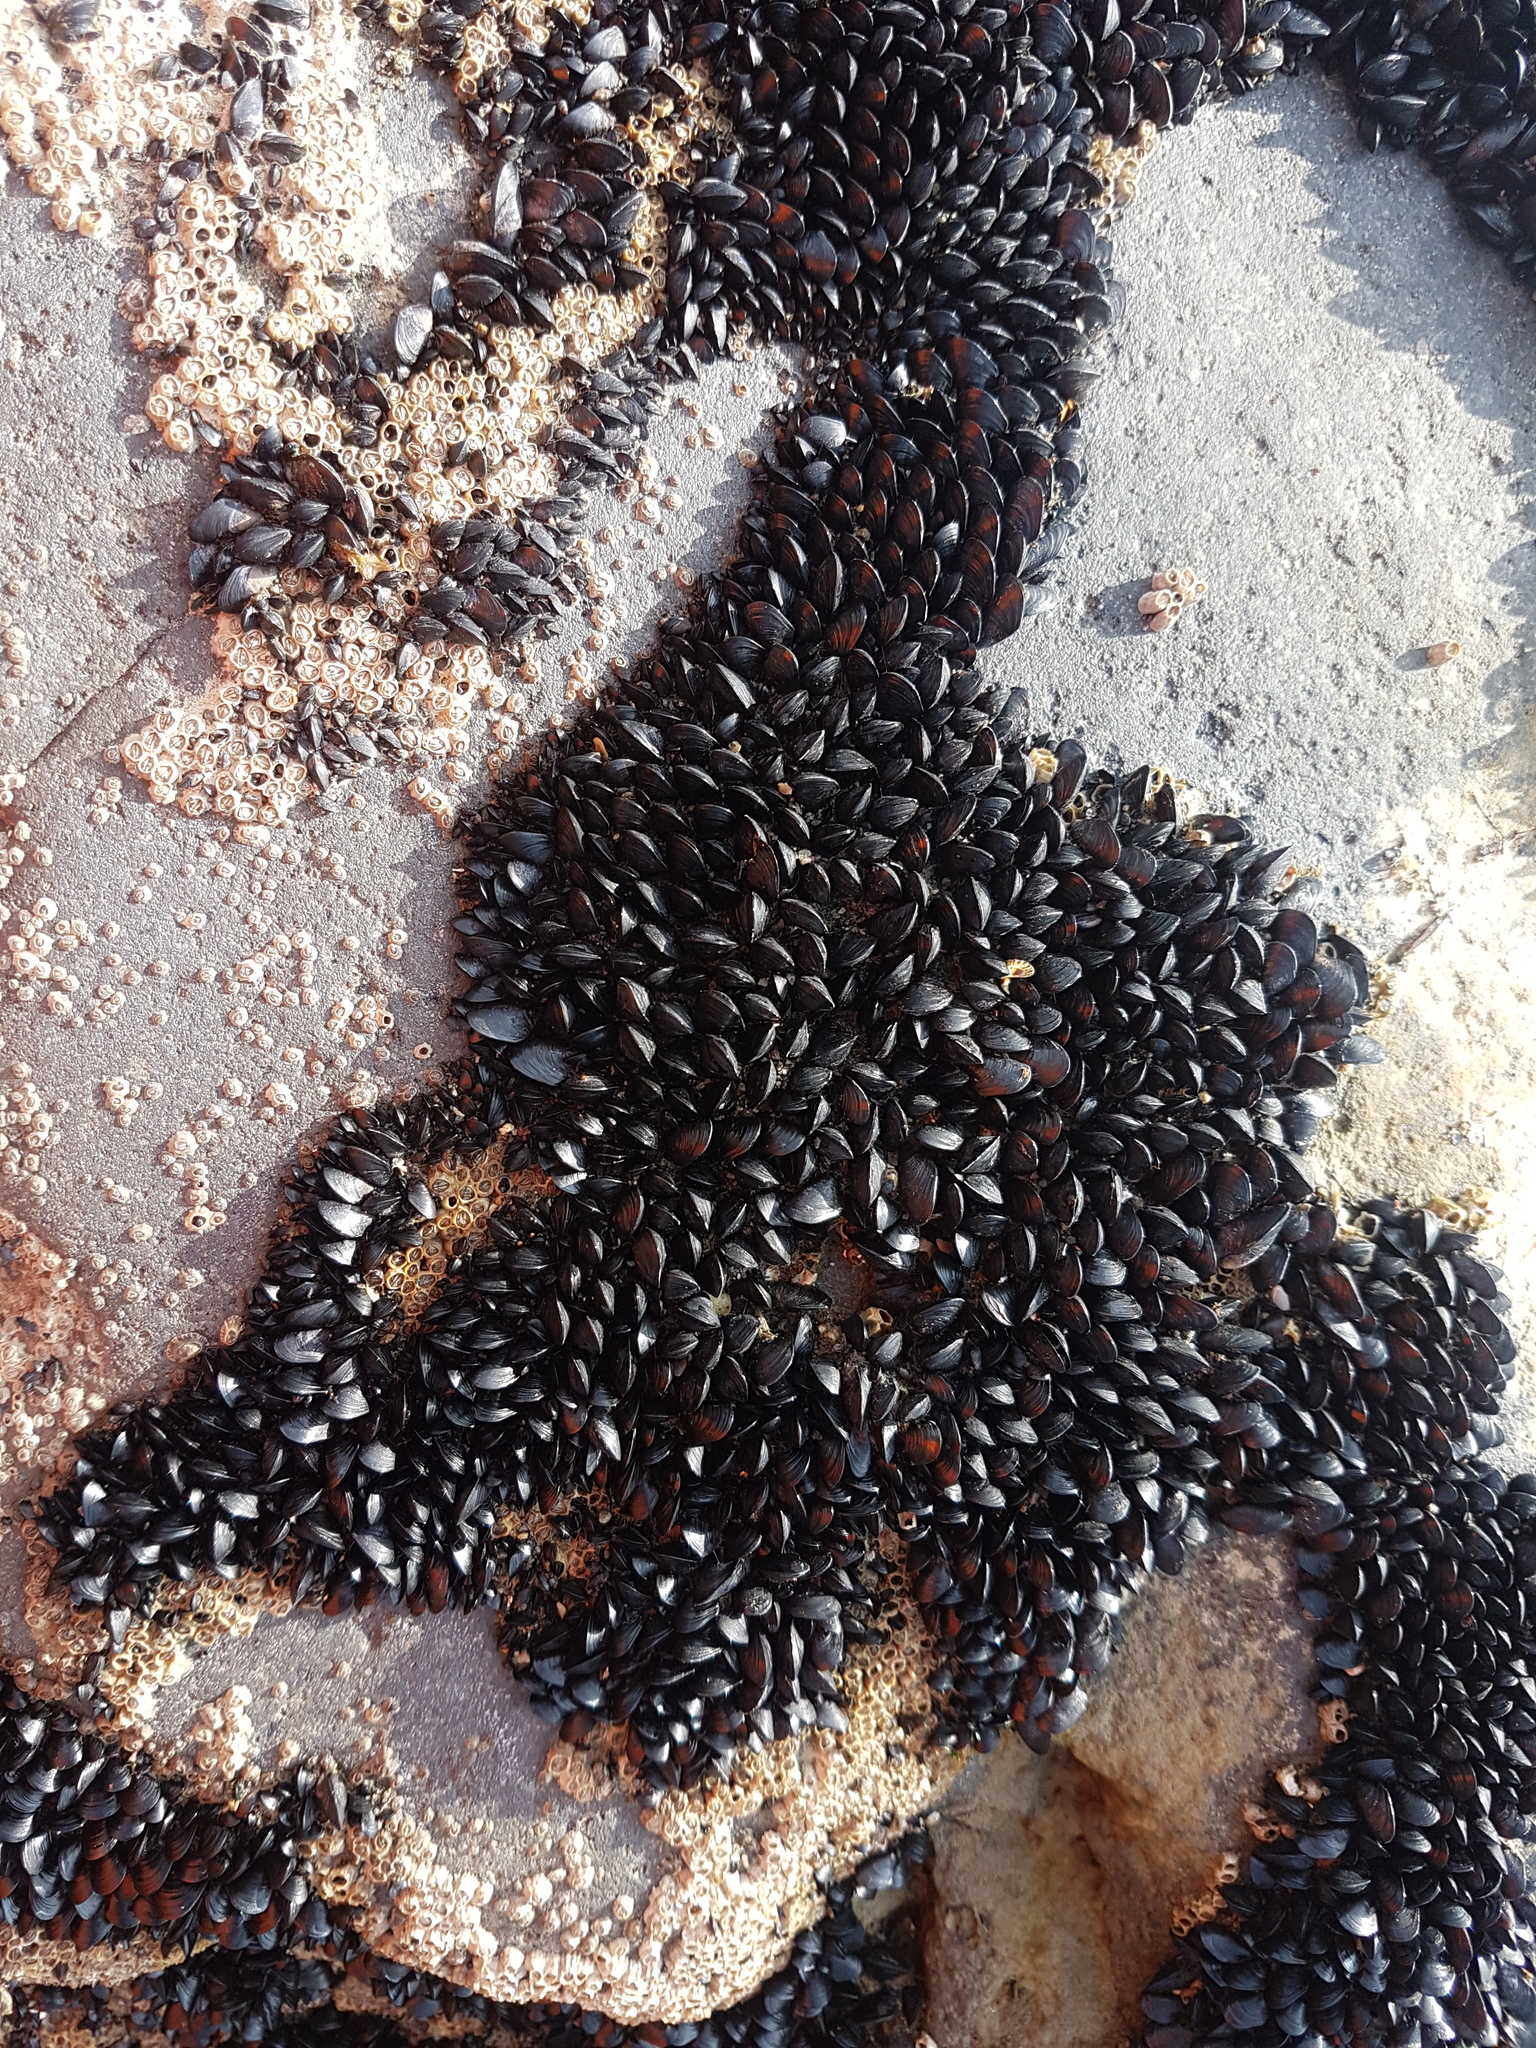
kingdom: Animalia
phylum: Mollusca
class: Bivalvia
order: Mytilida
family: Mytilidae
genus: Xenostrobus
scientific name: Xenostrobus neozelanicus
